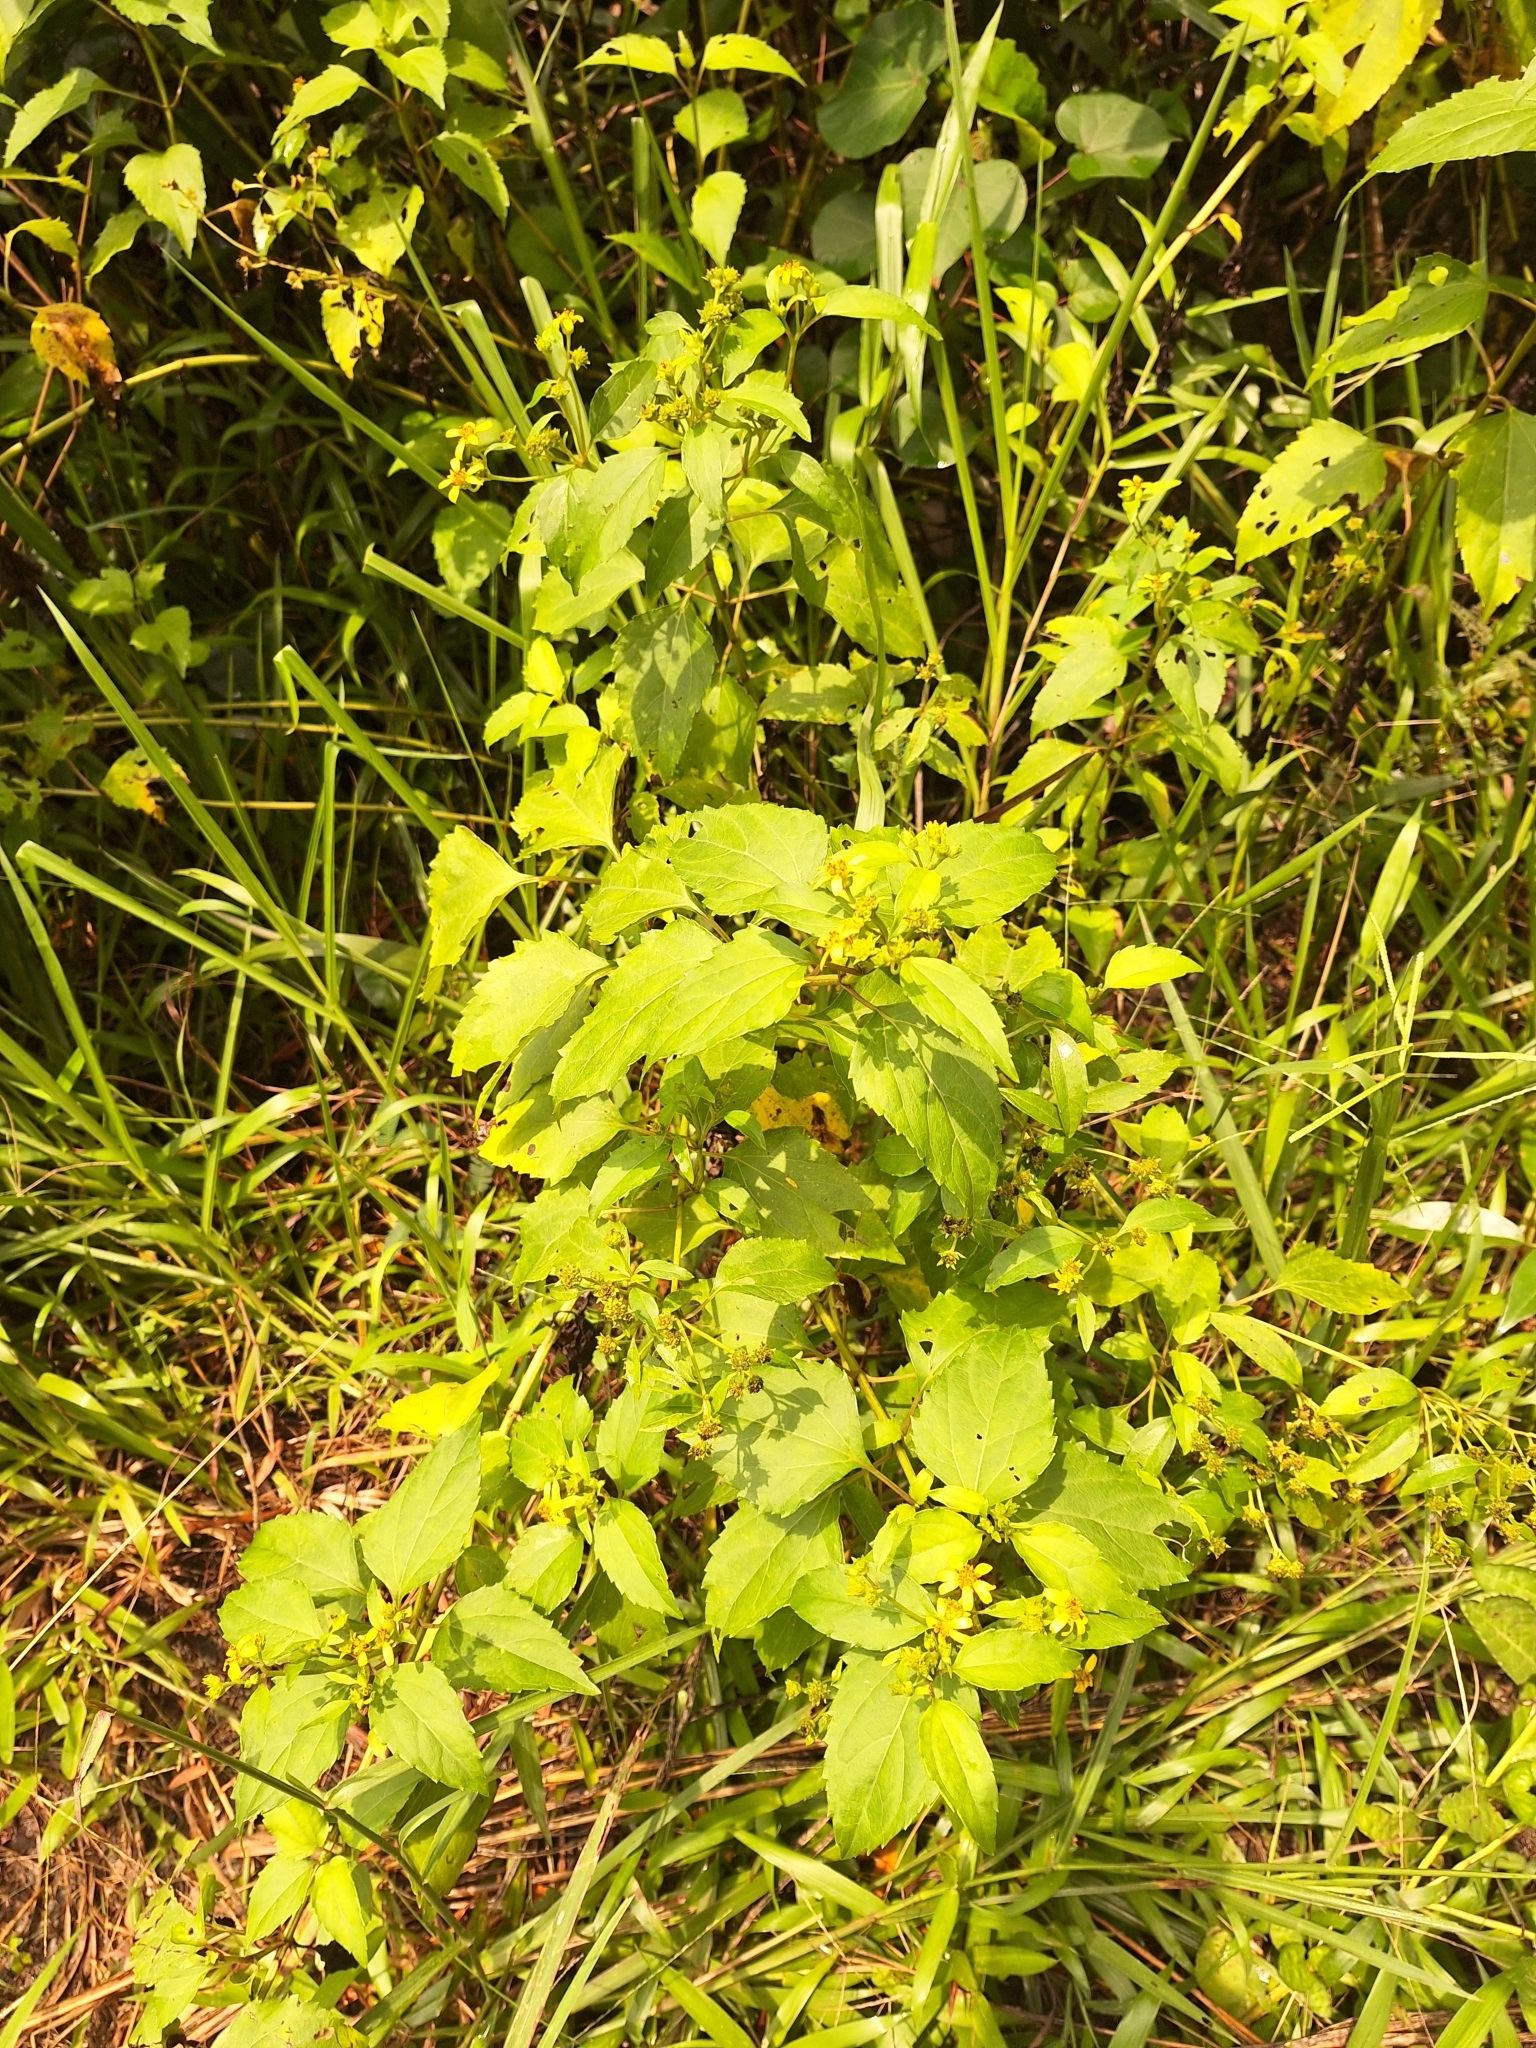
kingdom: Plantae
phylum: Tracheophyta
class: Magnoliopsida
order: Asterales
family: Asteraceae
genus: Wollastonia
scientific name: Wollastonia biflora
